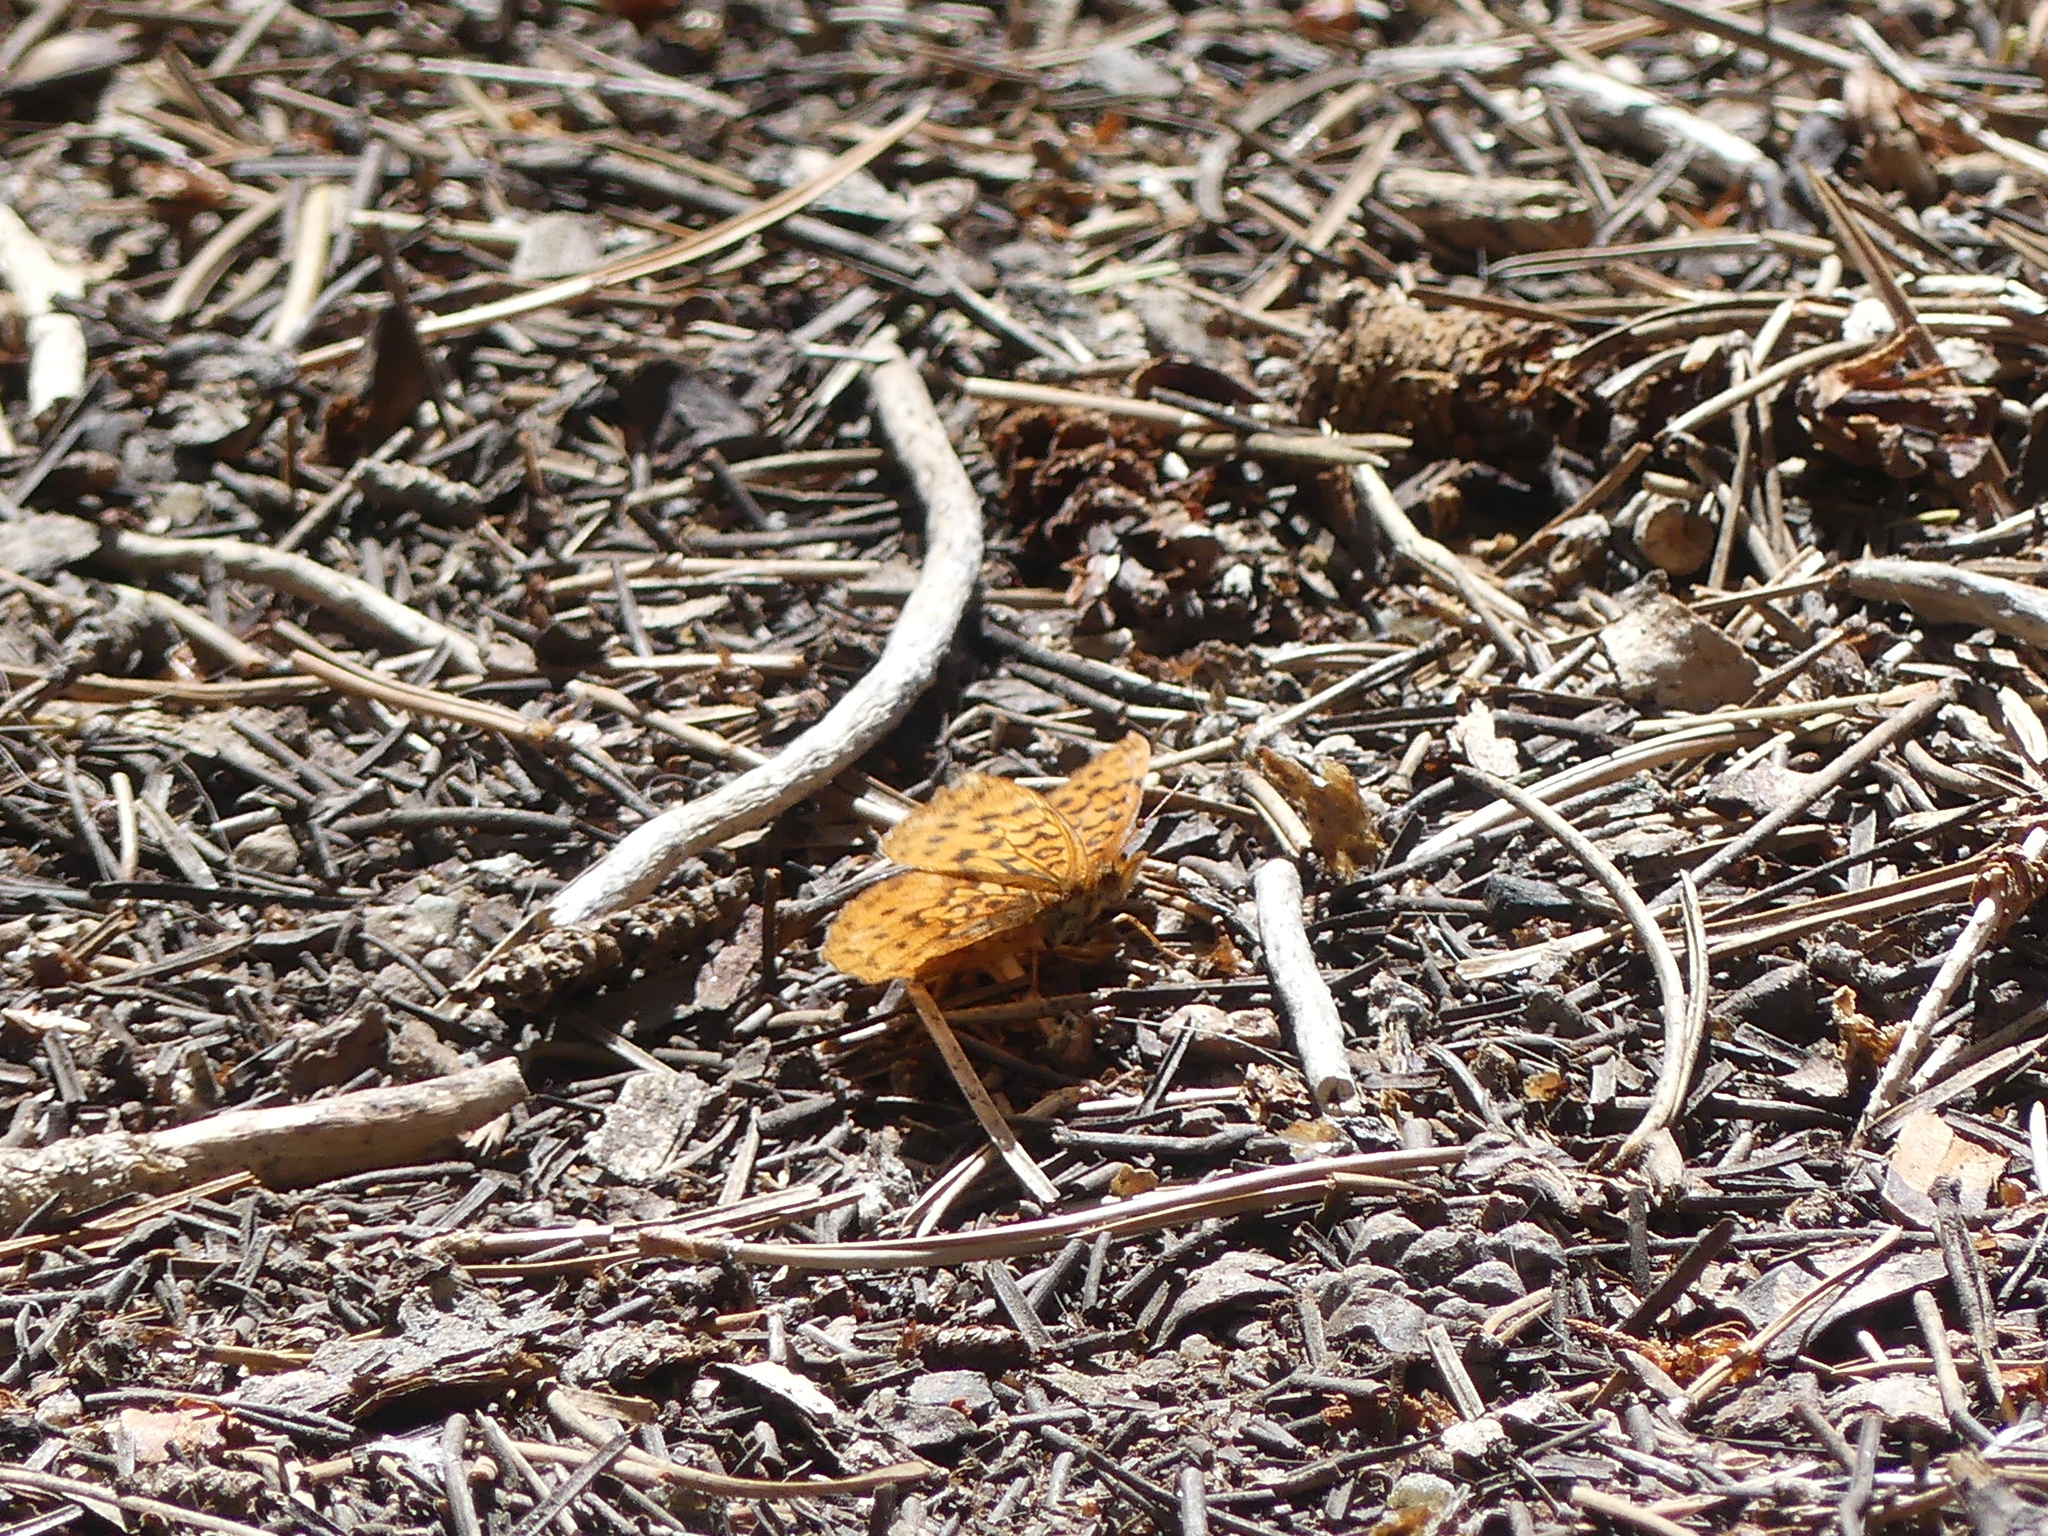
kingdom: Animalia
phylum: Arthropoda
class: Insecta
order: Lepidoptera
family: Nymphalidae
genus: Boloria
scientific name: Boloria epithore
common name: Pacific fritillary
